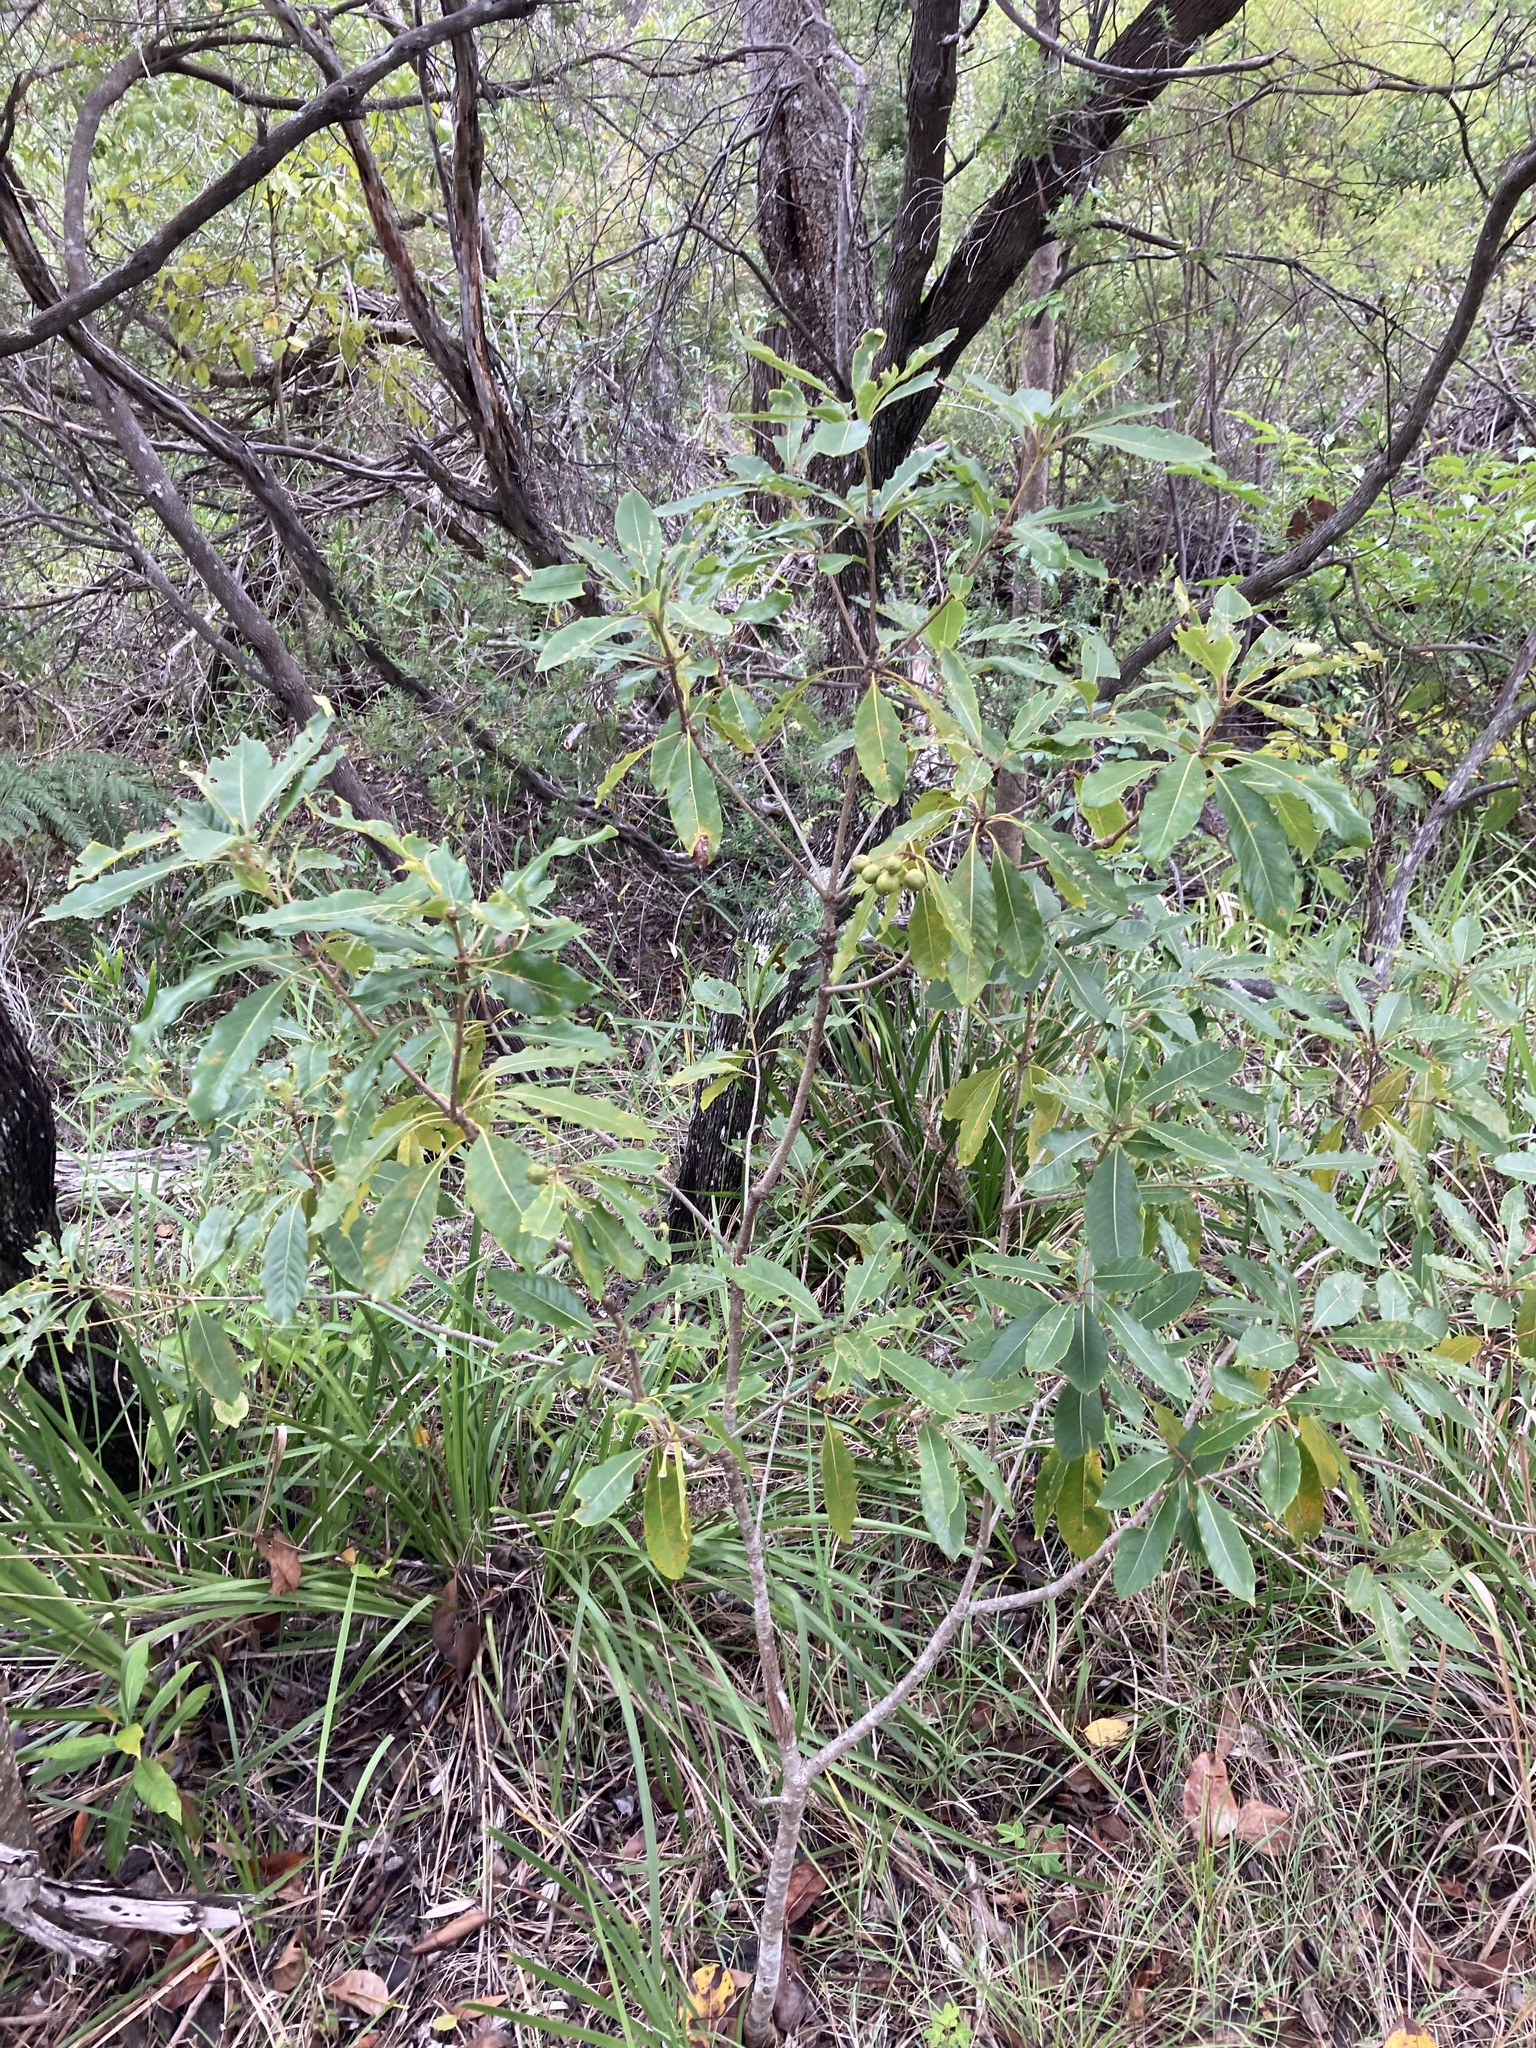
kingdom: Plantae
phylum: Tracheophyta
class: Magnoliopsida
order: Apiales
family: Pittosporaceae
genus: Pittosporum
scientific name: Pittosporum undulatum
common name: Australian cheesewood
